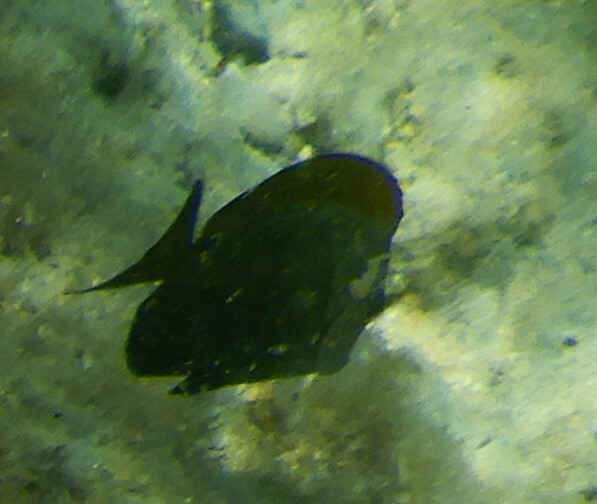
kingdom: Animalia
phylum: Chordata
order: Perciformes
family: Acanthuridae
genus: Acanthurus
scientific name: Acanthurus nigrofuscus
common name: Blackspot surgeonfish
